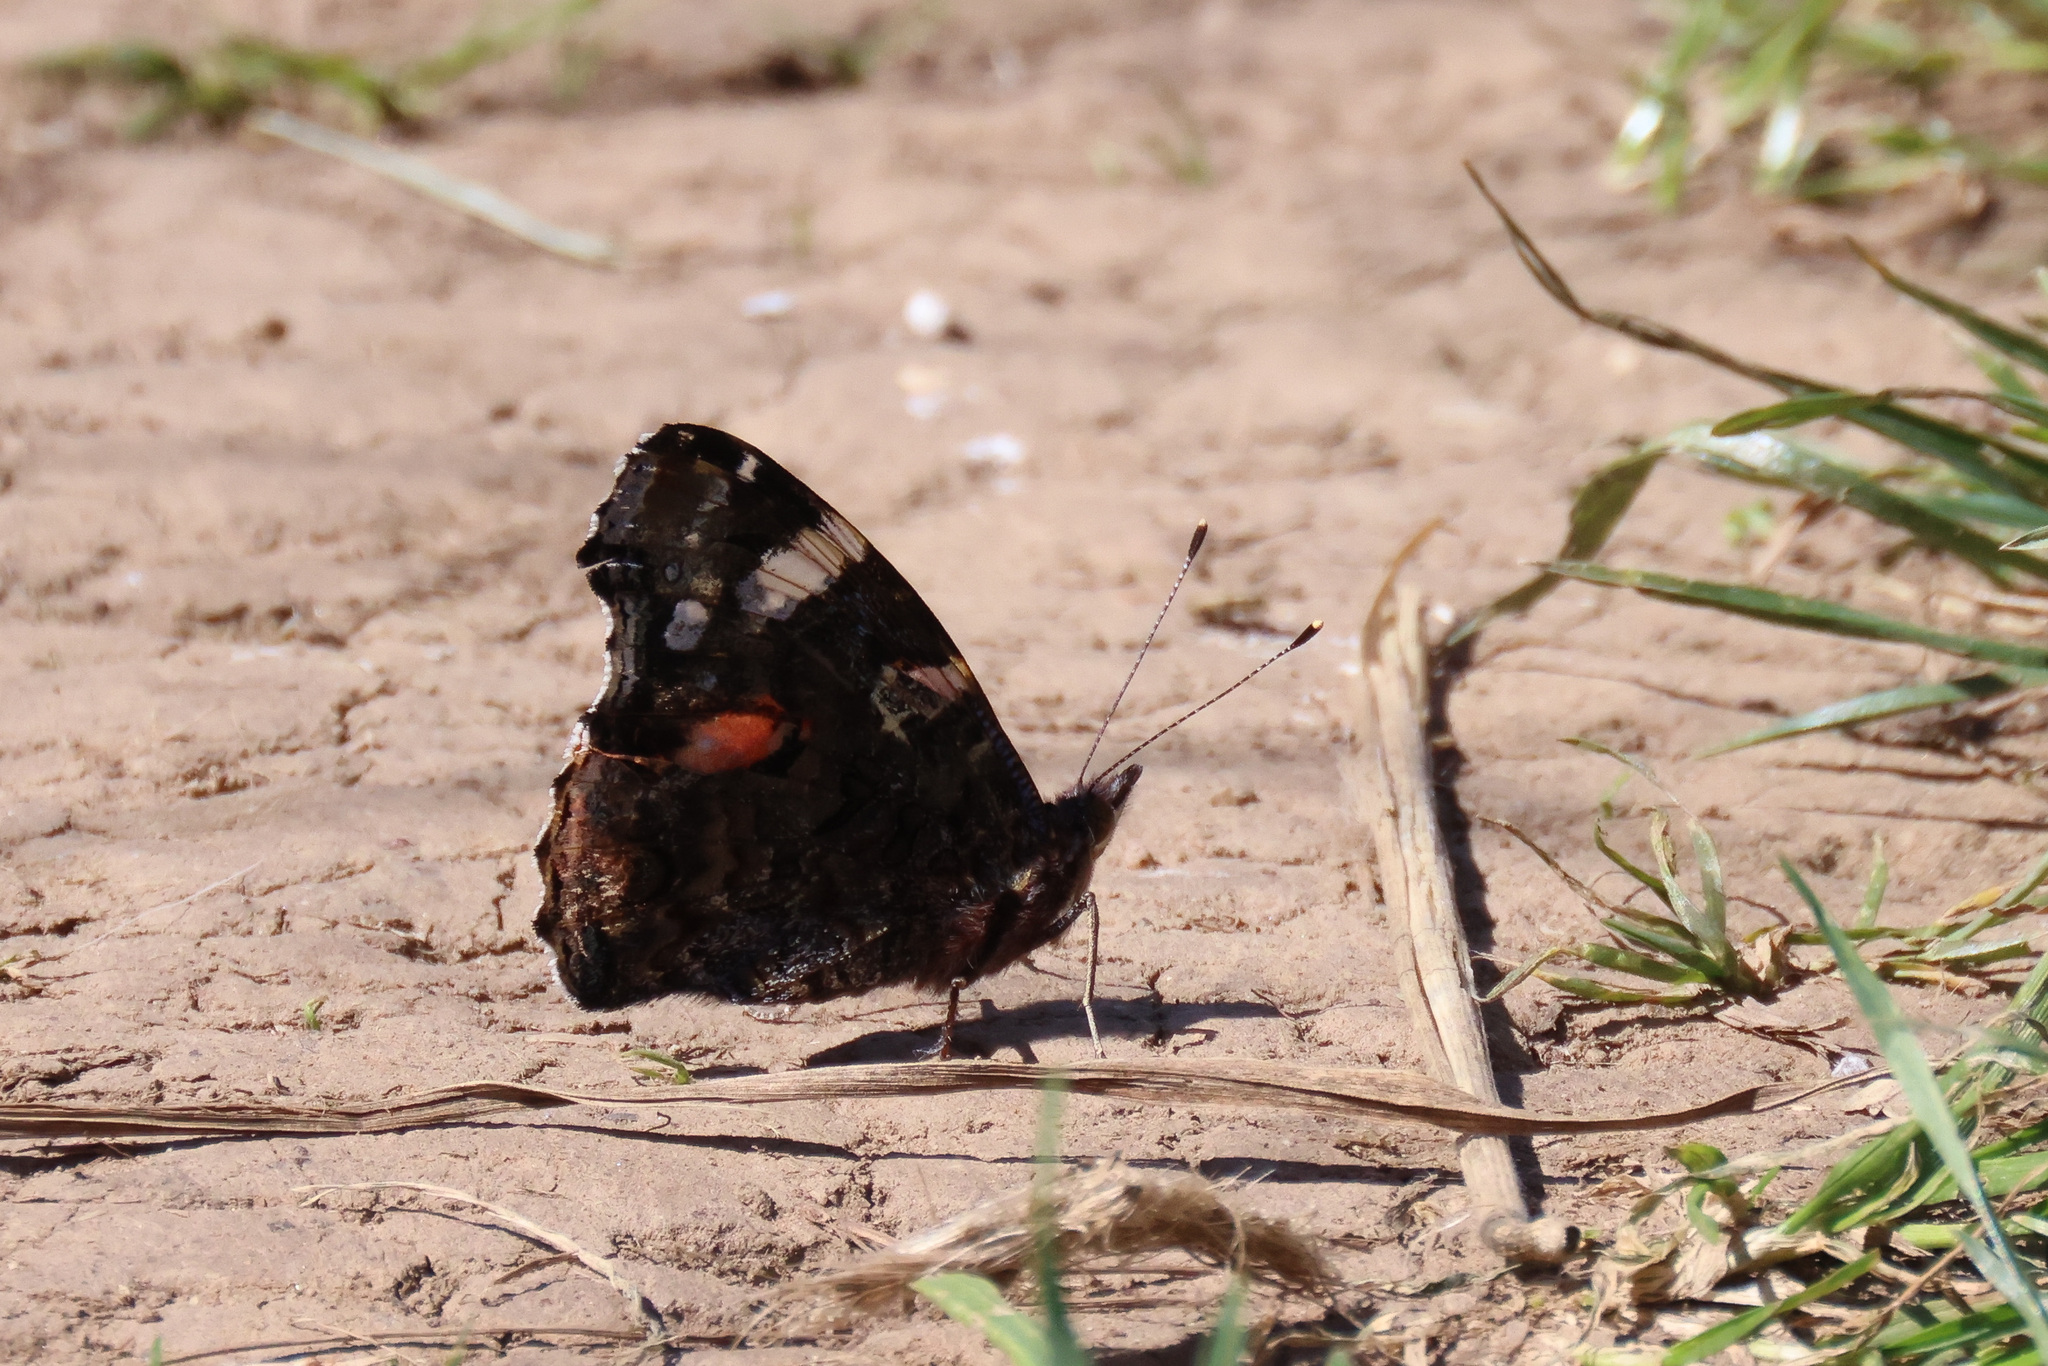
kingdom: Animalia
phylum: Arthropoda
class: Insecta
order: Lepidoptera
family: Nymphalidae
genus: Vanessa
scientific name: Vanessa atalanta
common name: Red admiral
